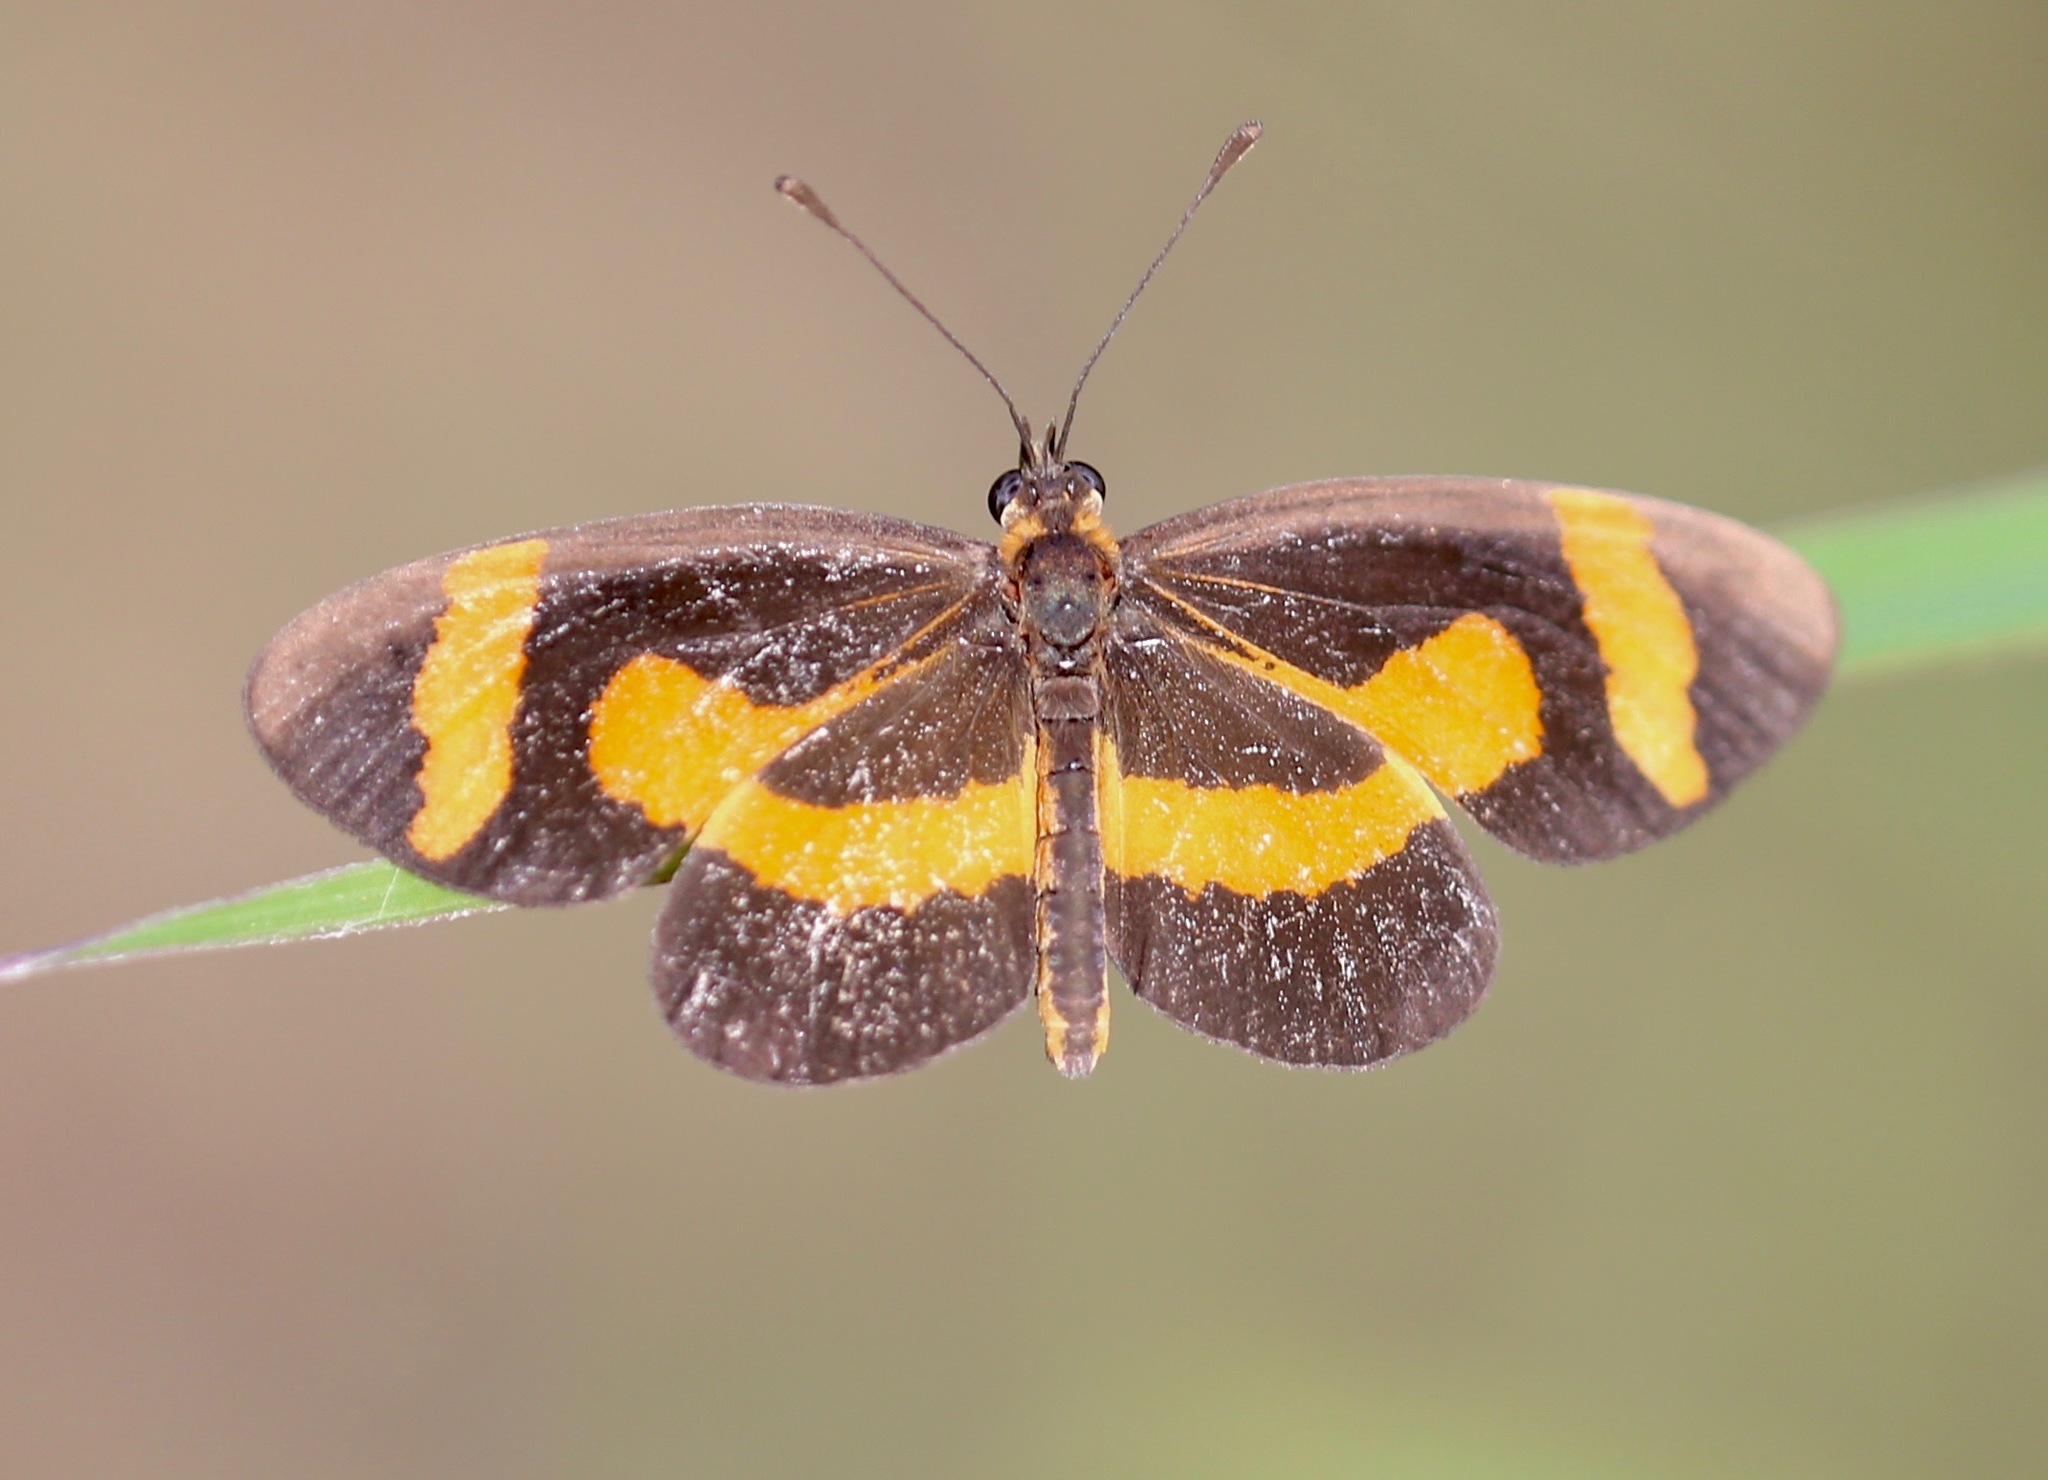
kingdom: Animalia
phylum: Arthropoda
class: Insecta
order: Lepidoptera
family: Nymphalidae
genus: Microtia
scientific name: Microtia elva
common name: Elf
